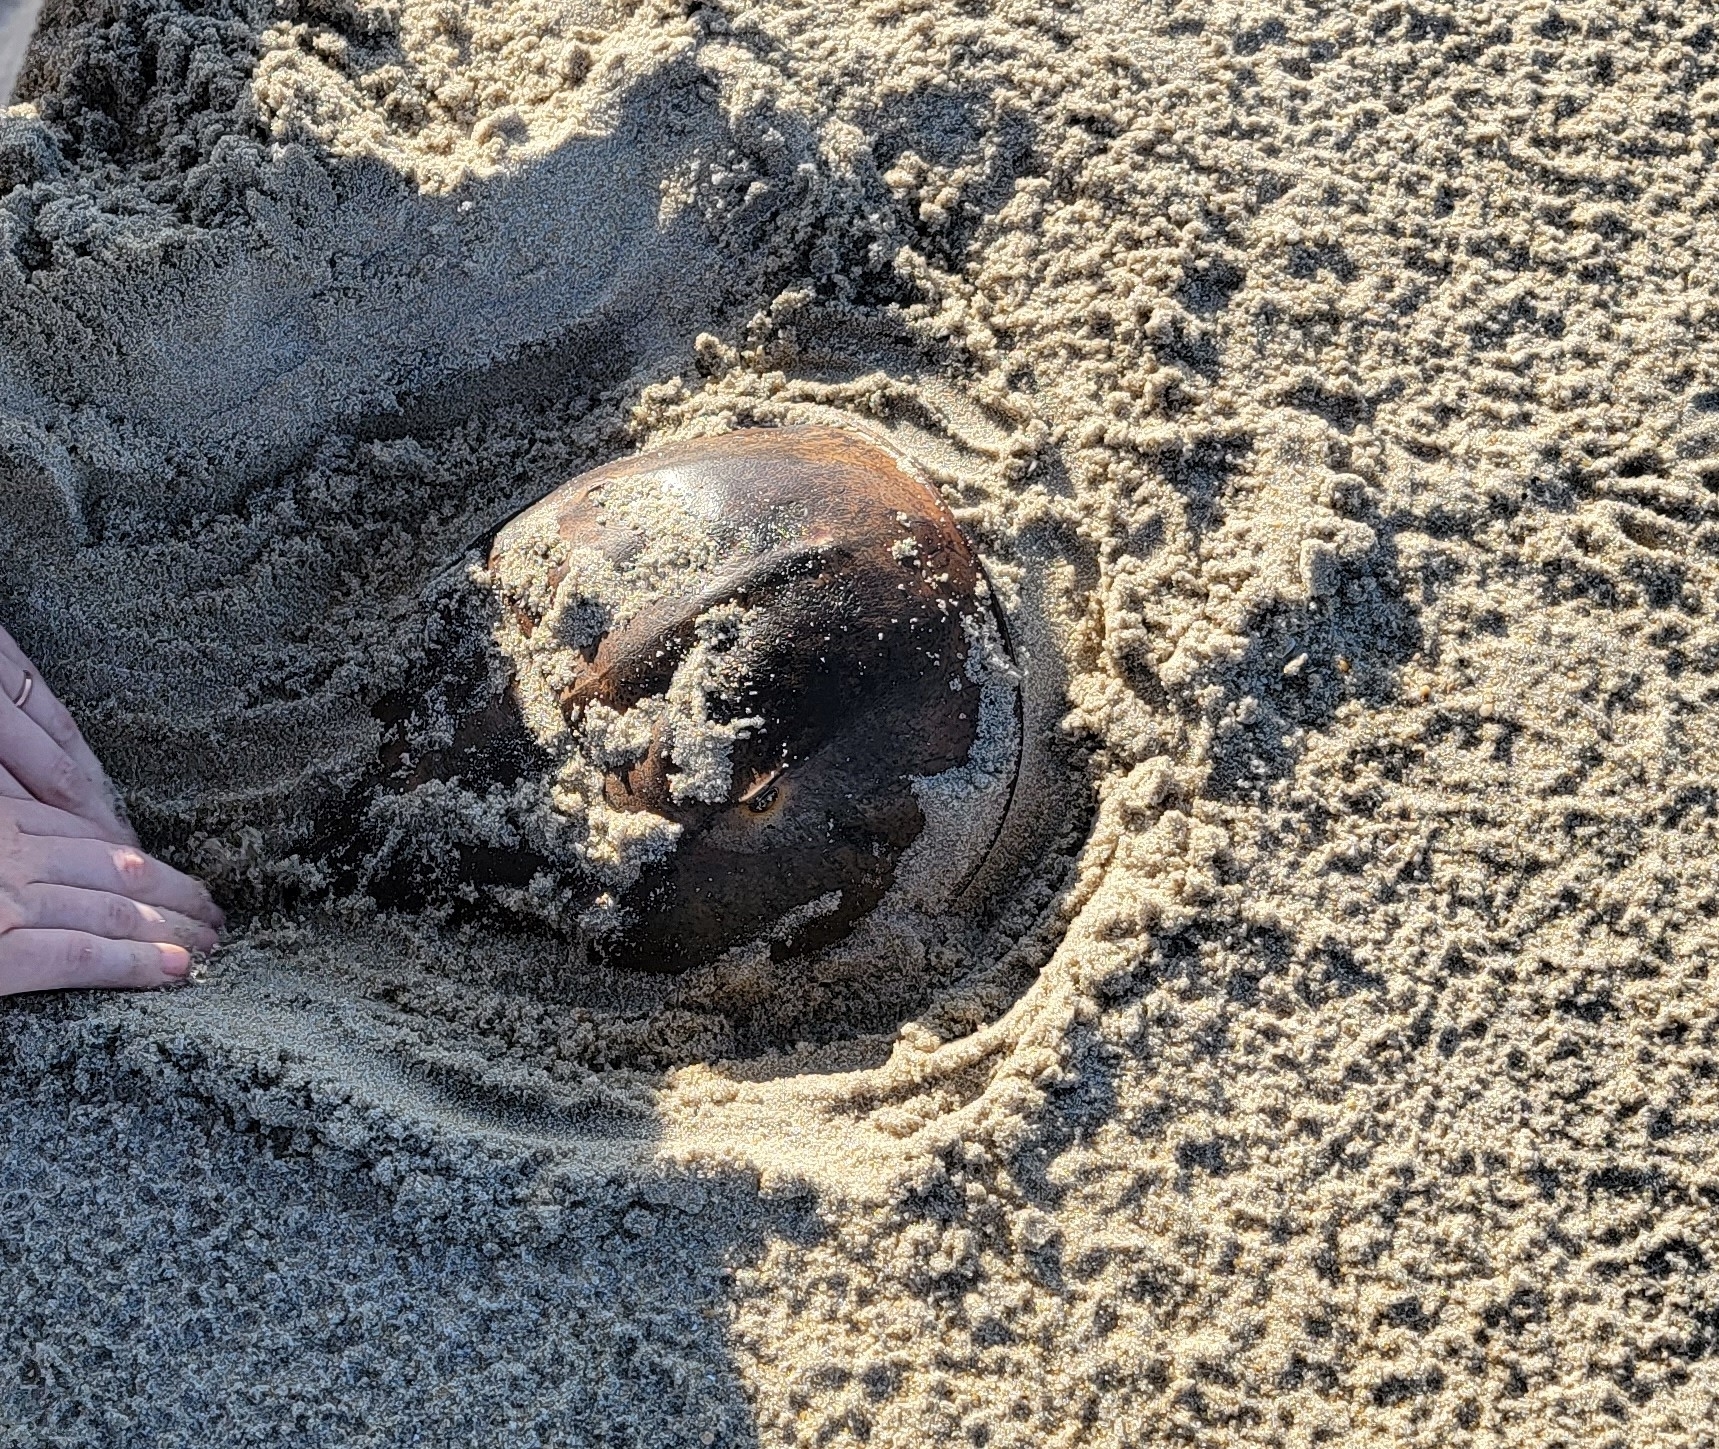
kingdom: Animalia
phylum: Arthropoda
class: Merostomata
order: Xiphosurida
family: Limulidae
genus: Limulus
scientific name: Limulus polyphemus
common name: Horseshoe crab
